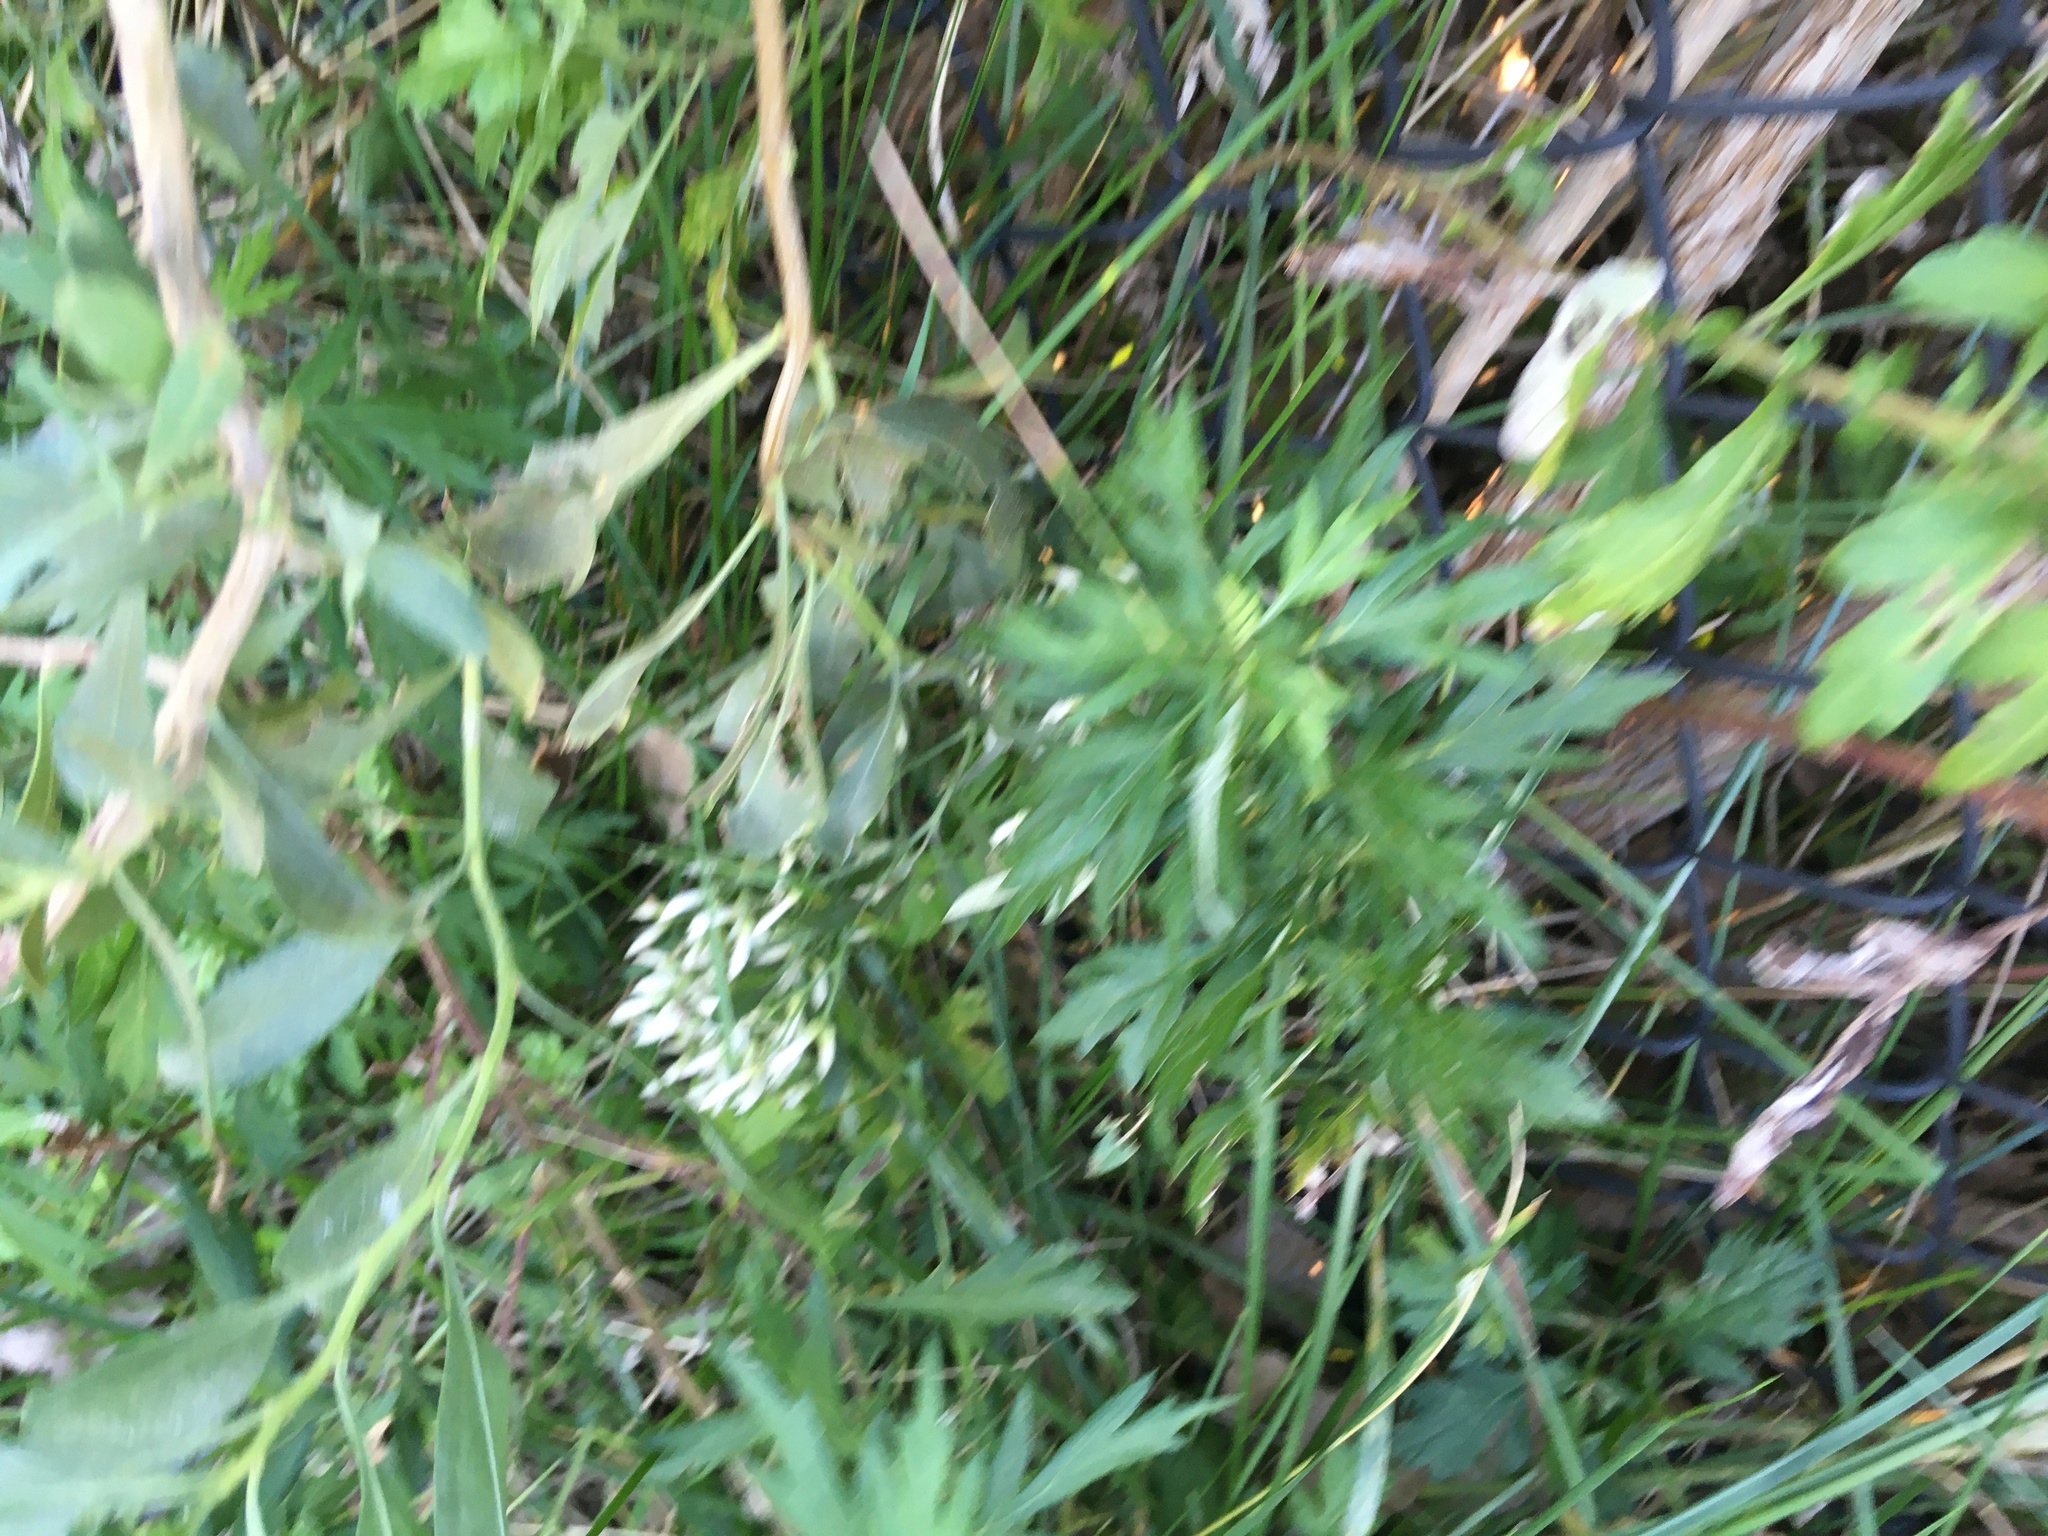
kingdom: Plantae
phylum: Tracheophyta
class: Magnoliopsida
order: Asterales
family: Asteraceae
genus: Artemisia
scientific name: Artemisia vulgaris
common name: Mugwort
